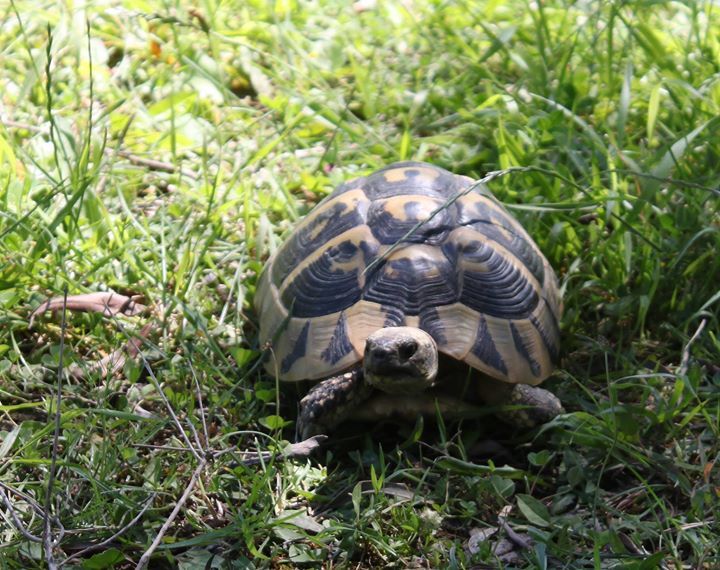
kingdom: Animalia
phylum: Chordata
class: Testudines
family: Testudinidae
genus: Testudo
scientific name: Testudo hermanni
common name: Hermann's tortoise
